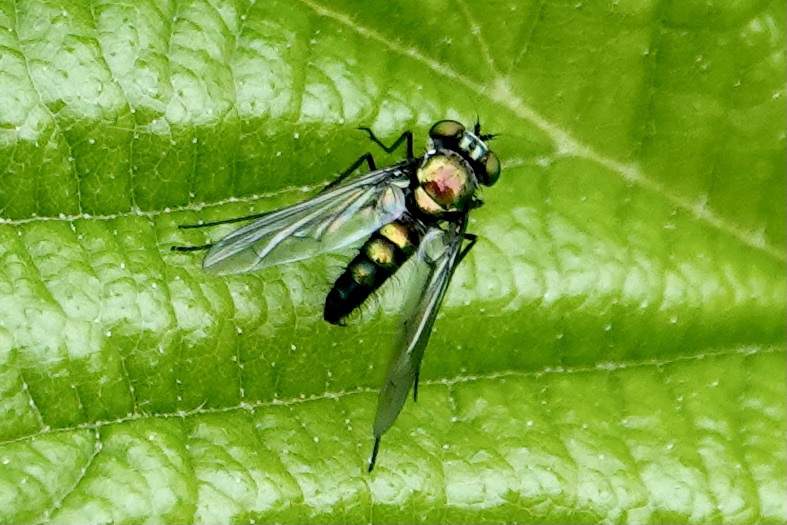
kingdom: Animalia
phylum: Arthropoda
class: Insecta
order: Diptera
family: Dolichopodidae
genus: Condylostylus
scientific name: Condylostylus patibulatus
